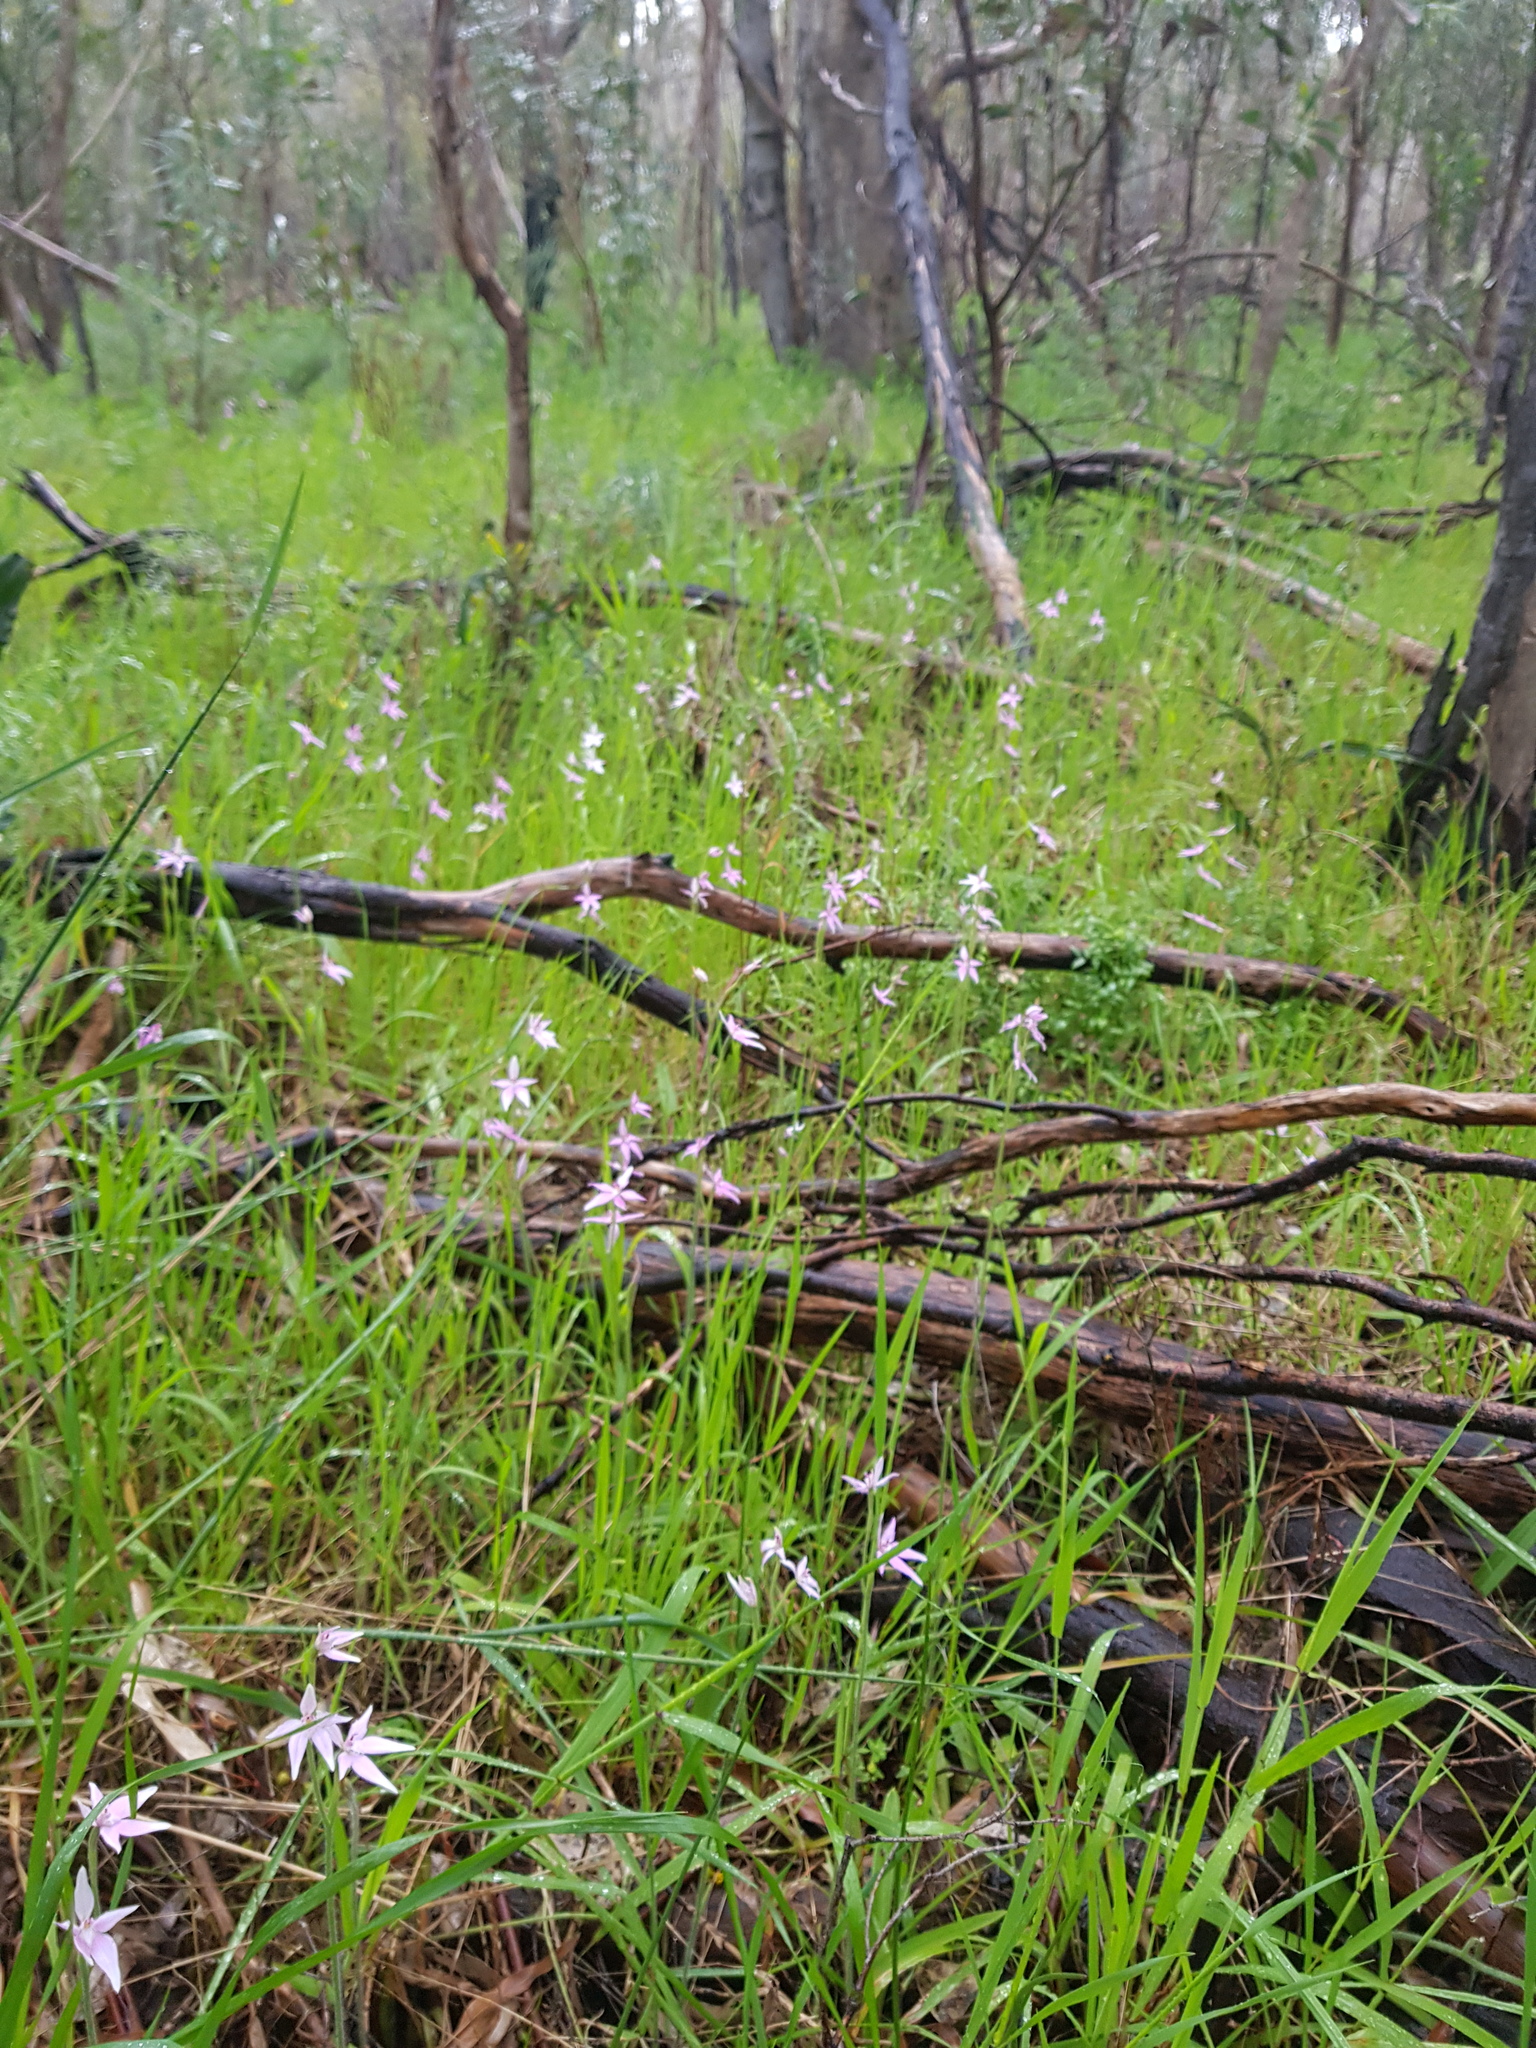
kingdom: Plantae
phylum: Tracheophyta
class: Liliopsida
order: Asparagales
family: Orchidaceae
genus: Caladenia
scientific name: Caladenia latifolia
